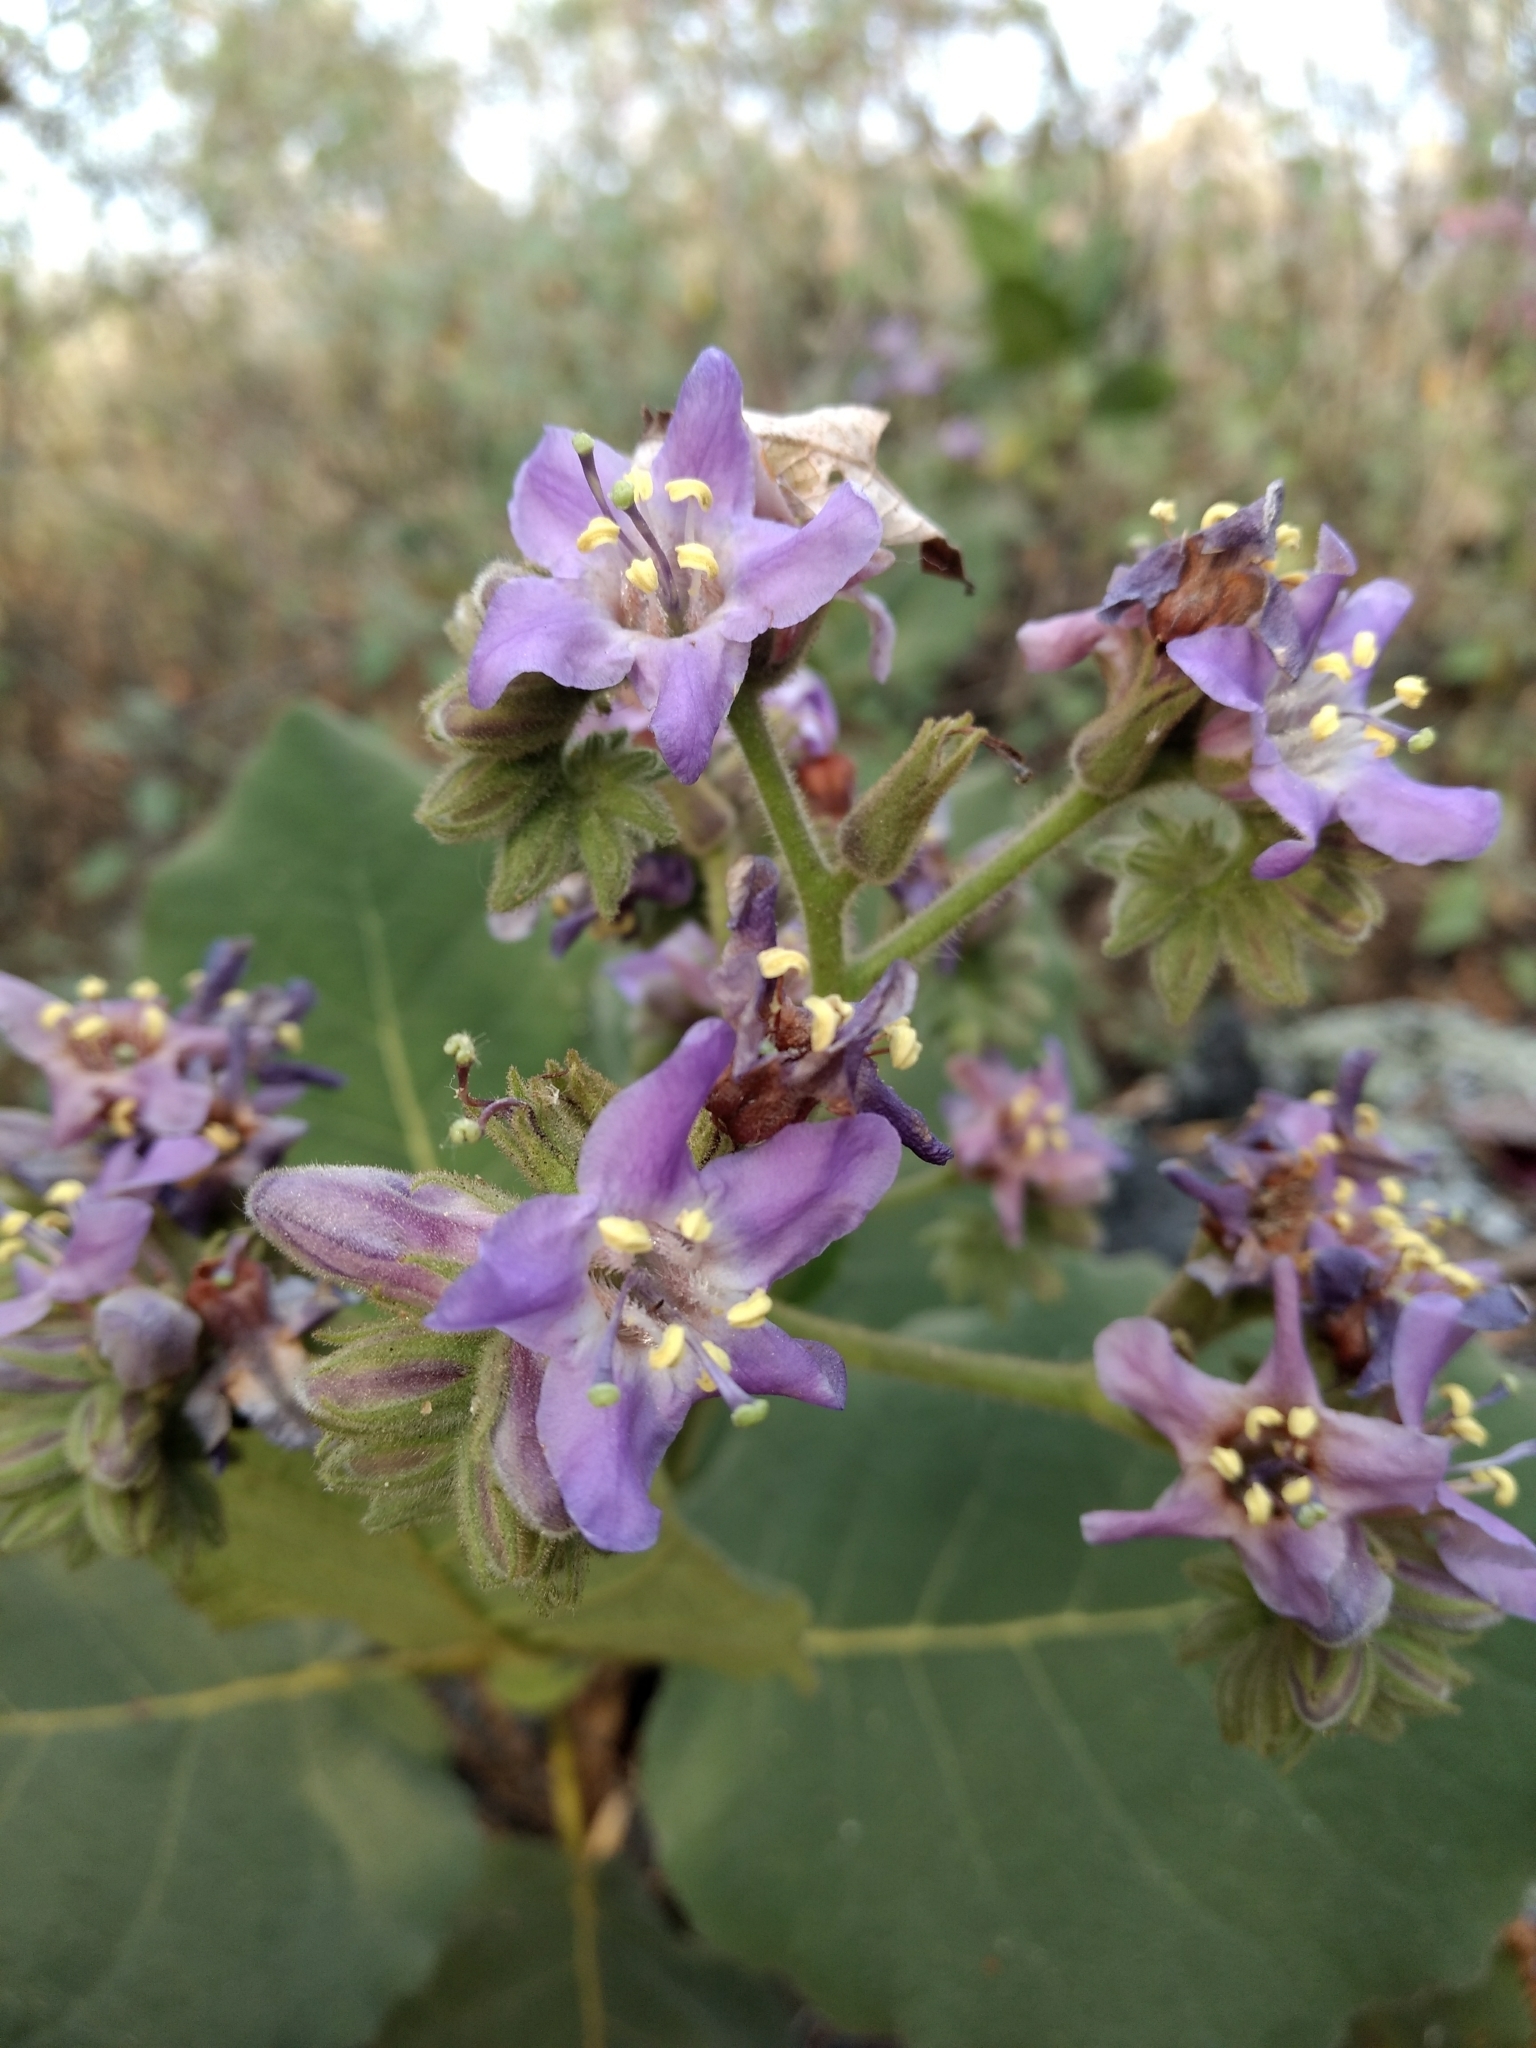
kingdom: Plantae
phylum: Tracheophyta
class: Magnoliopsida
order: Boraginales
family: Namaceae
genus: Wigandia
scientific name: Wigandia urens
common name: Caracus wigandia
